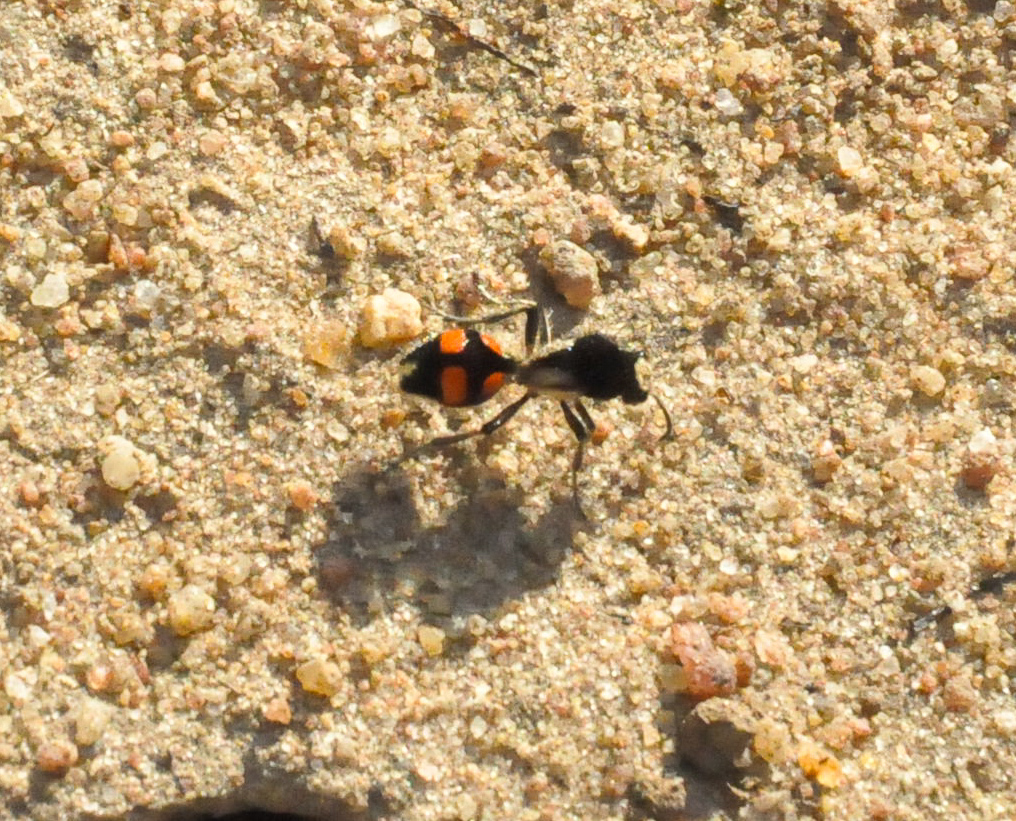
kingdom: Animalia
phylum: Arthropoda
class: Insecta
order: Hymenoptera
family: Mutillidae
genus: Traumatomutilla
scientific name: Traumatomutilla guarata
